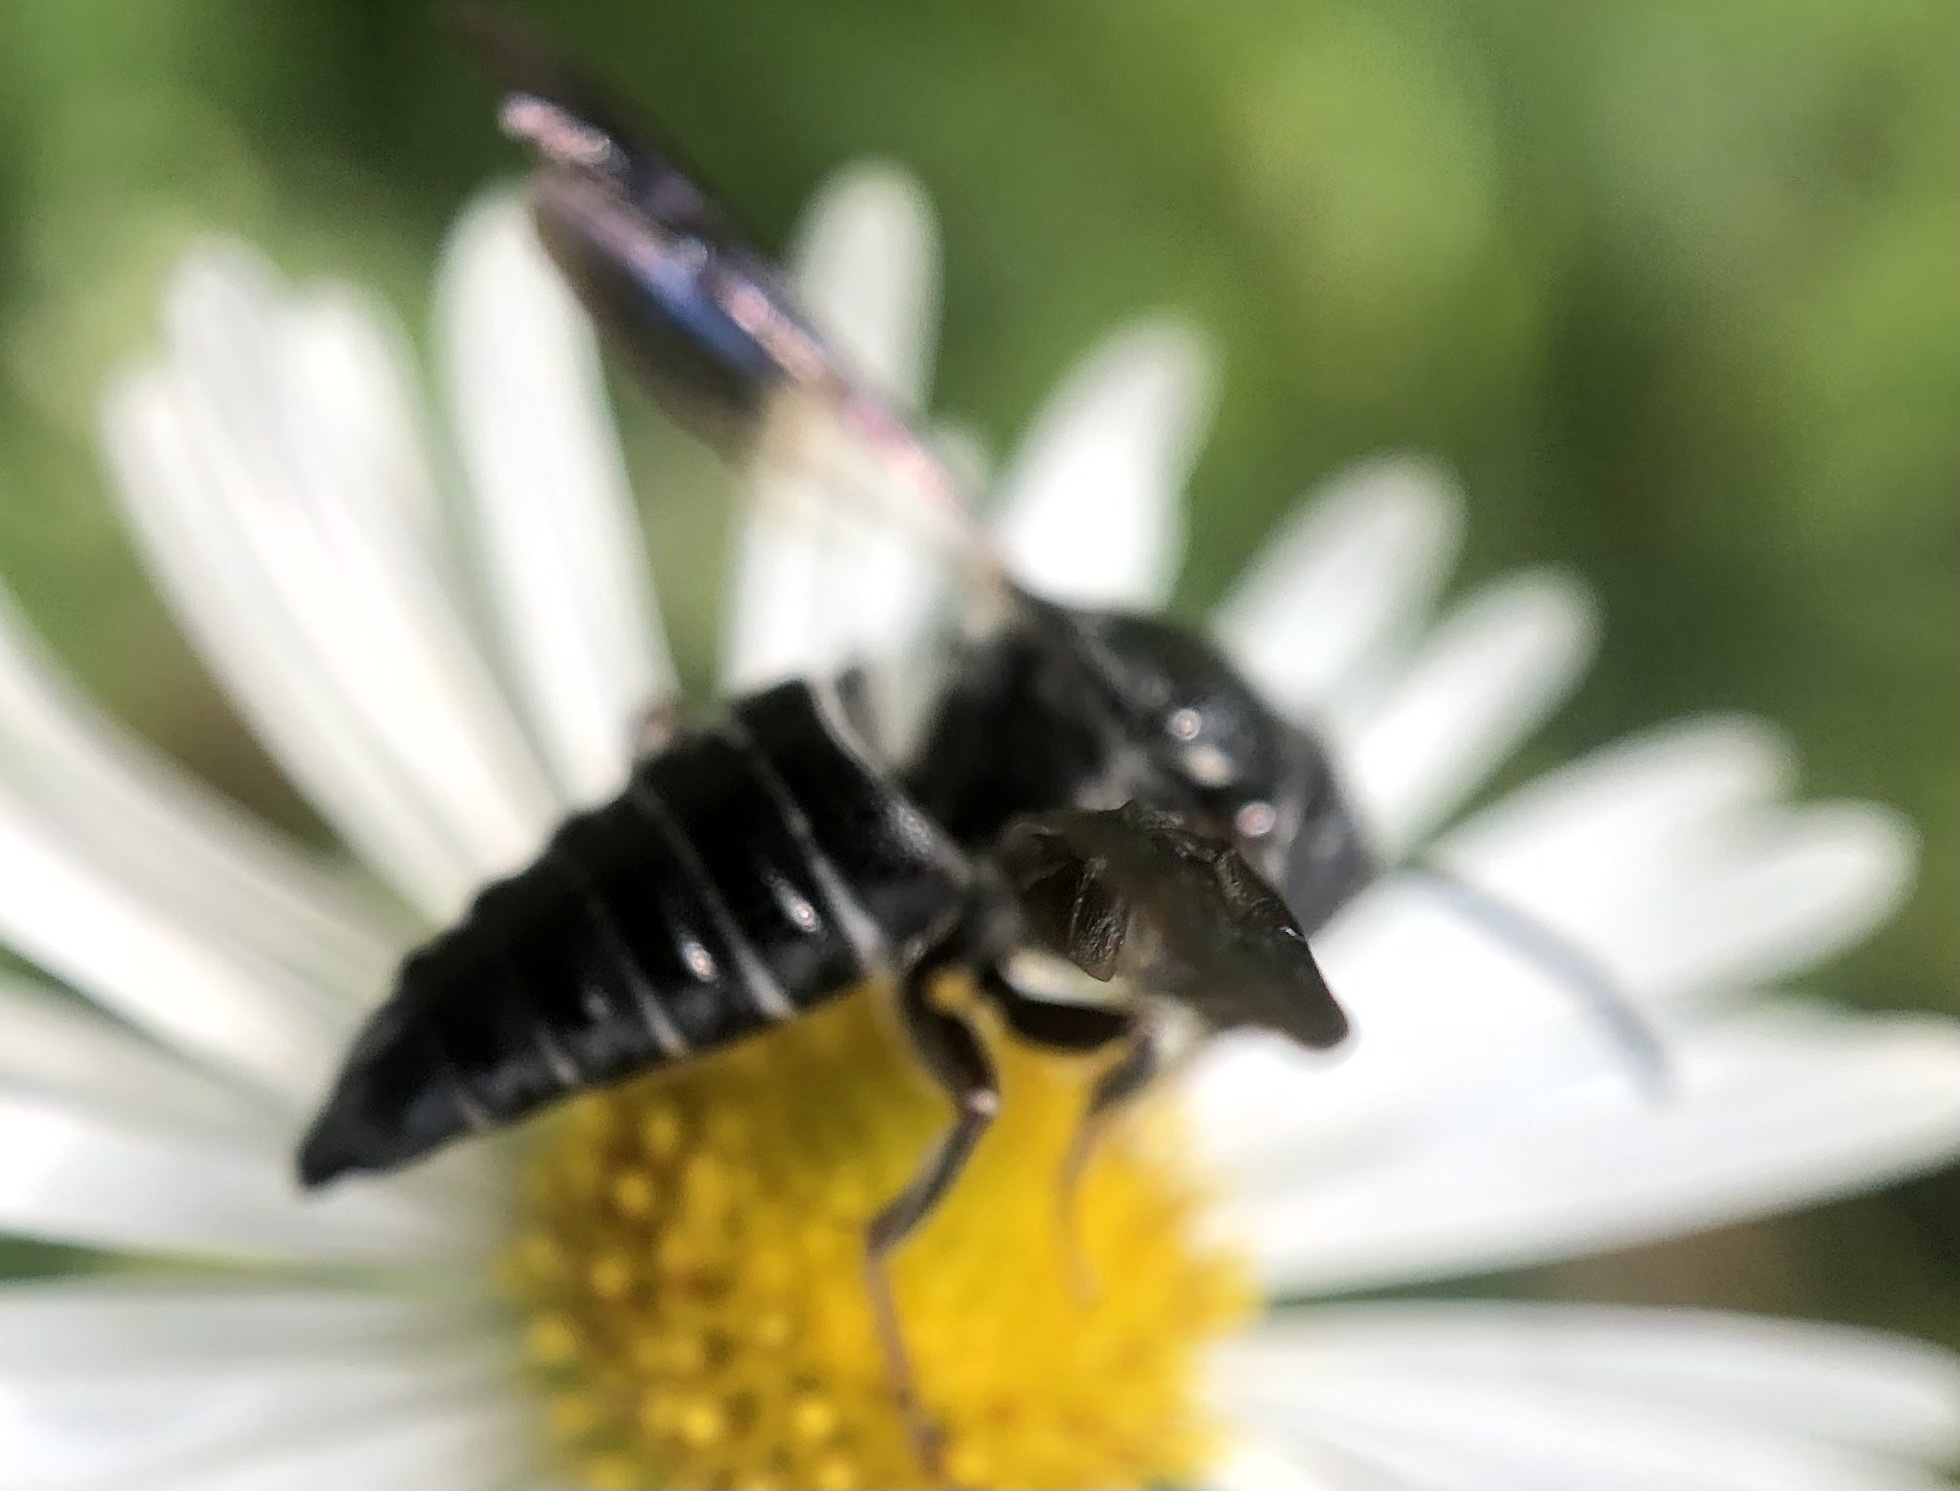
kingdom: Animalia
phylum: Arthropoda
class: Insecta
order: Hymenoptera
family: Megachilidae
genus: Coelioxys
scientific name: Coelioxys dolichos
